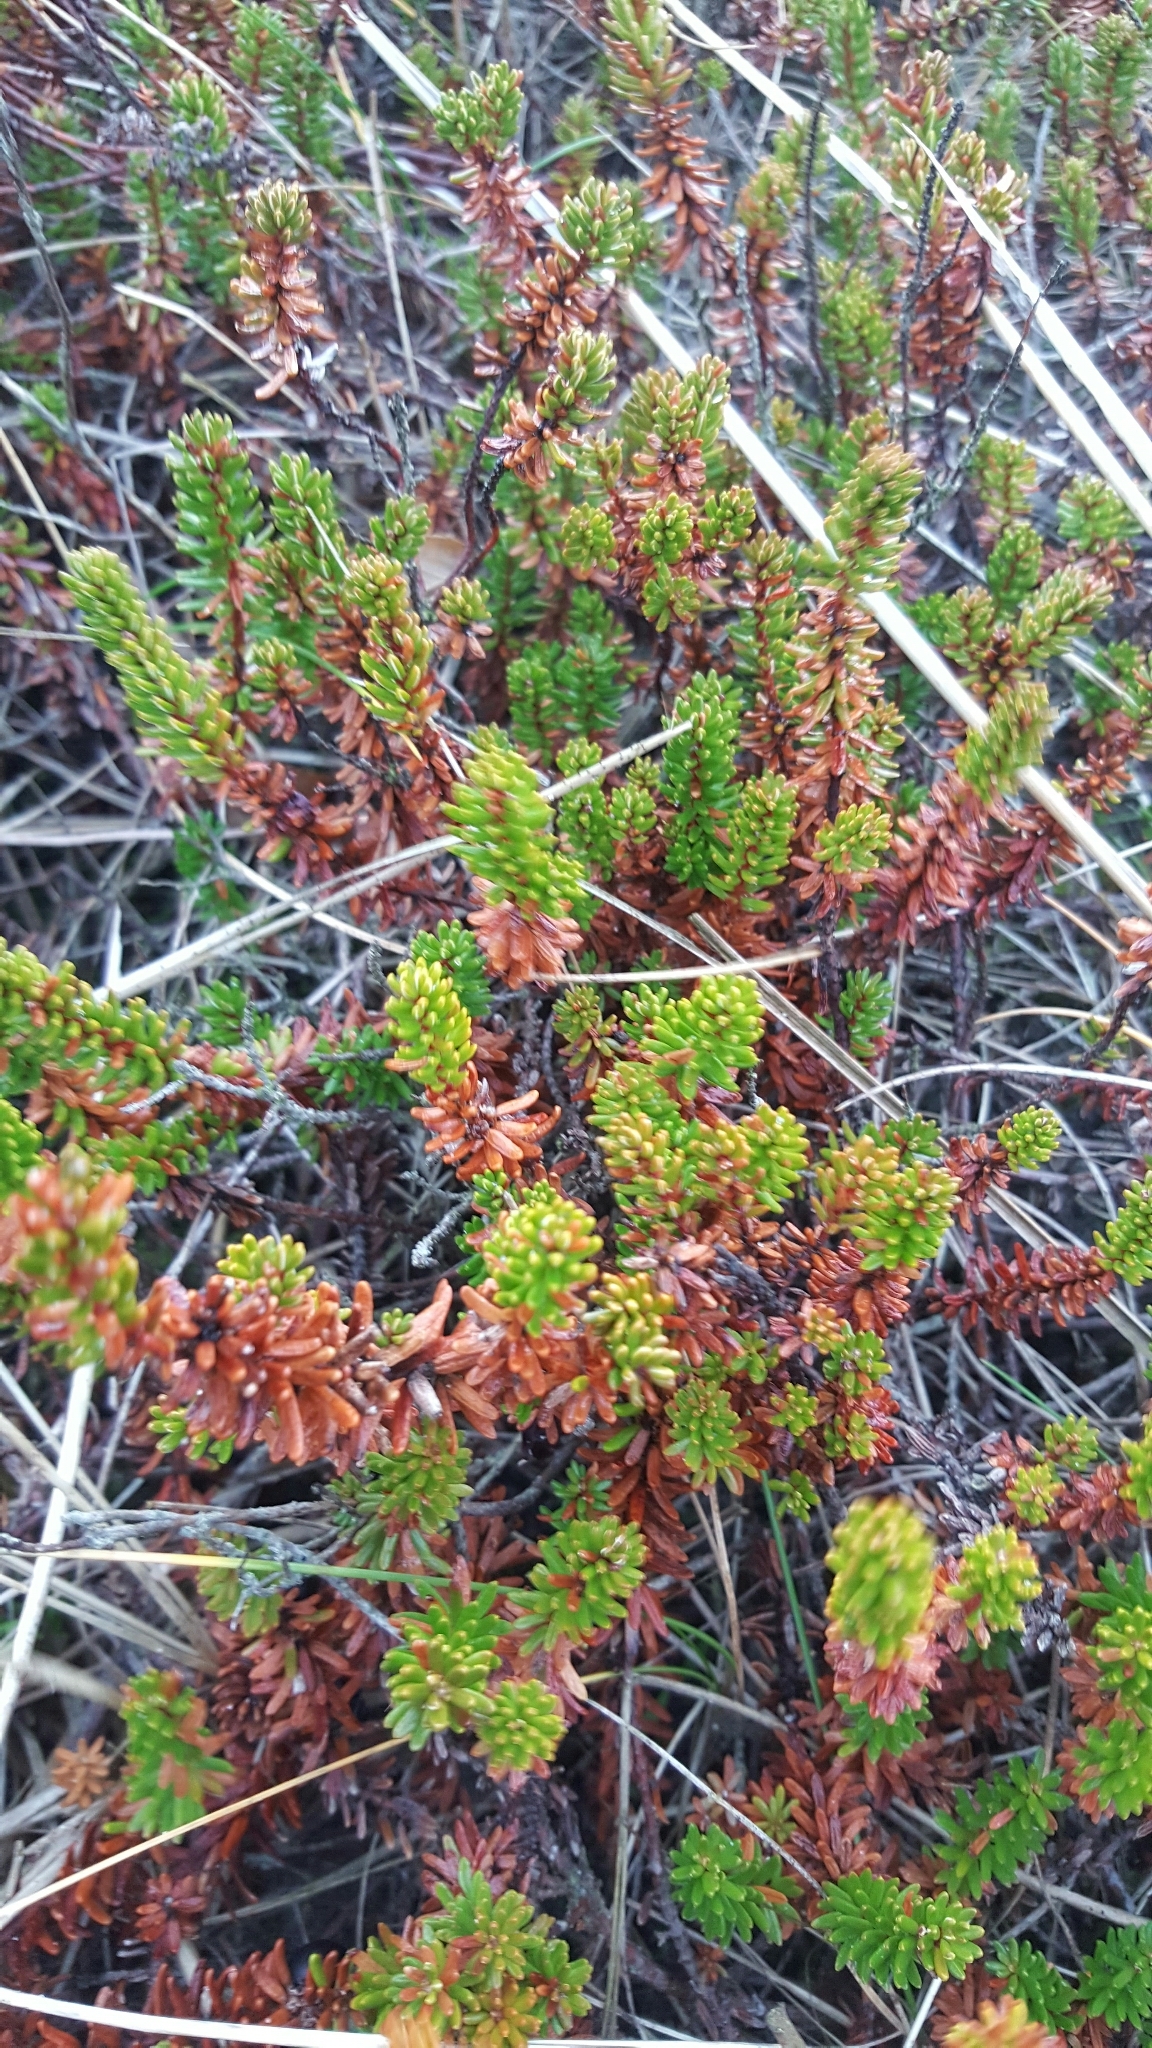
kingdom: Plantae
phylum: Tracheophyta
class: Magnoliopsida
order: Ericales
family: Ericaceae
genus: Empetrum
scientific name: Empetrum nigrum
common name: Black crowberry
